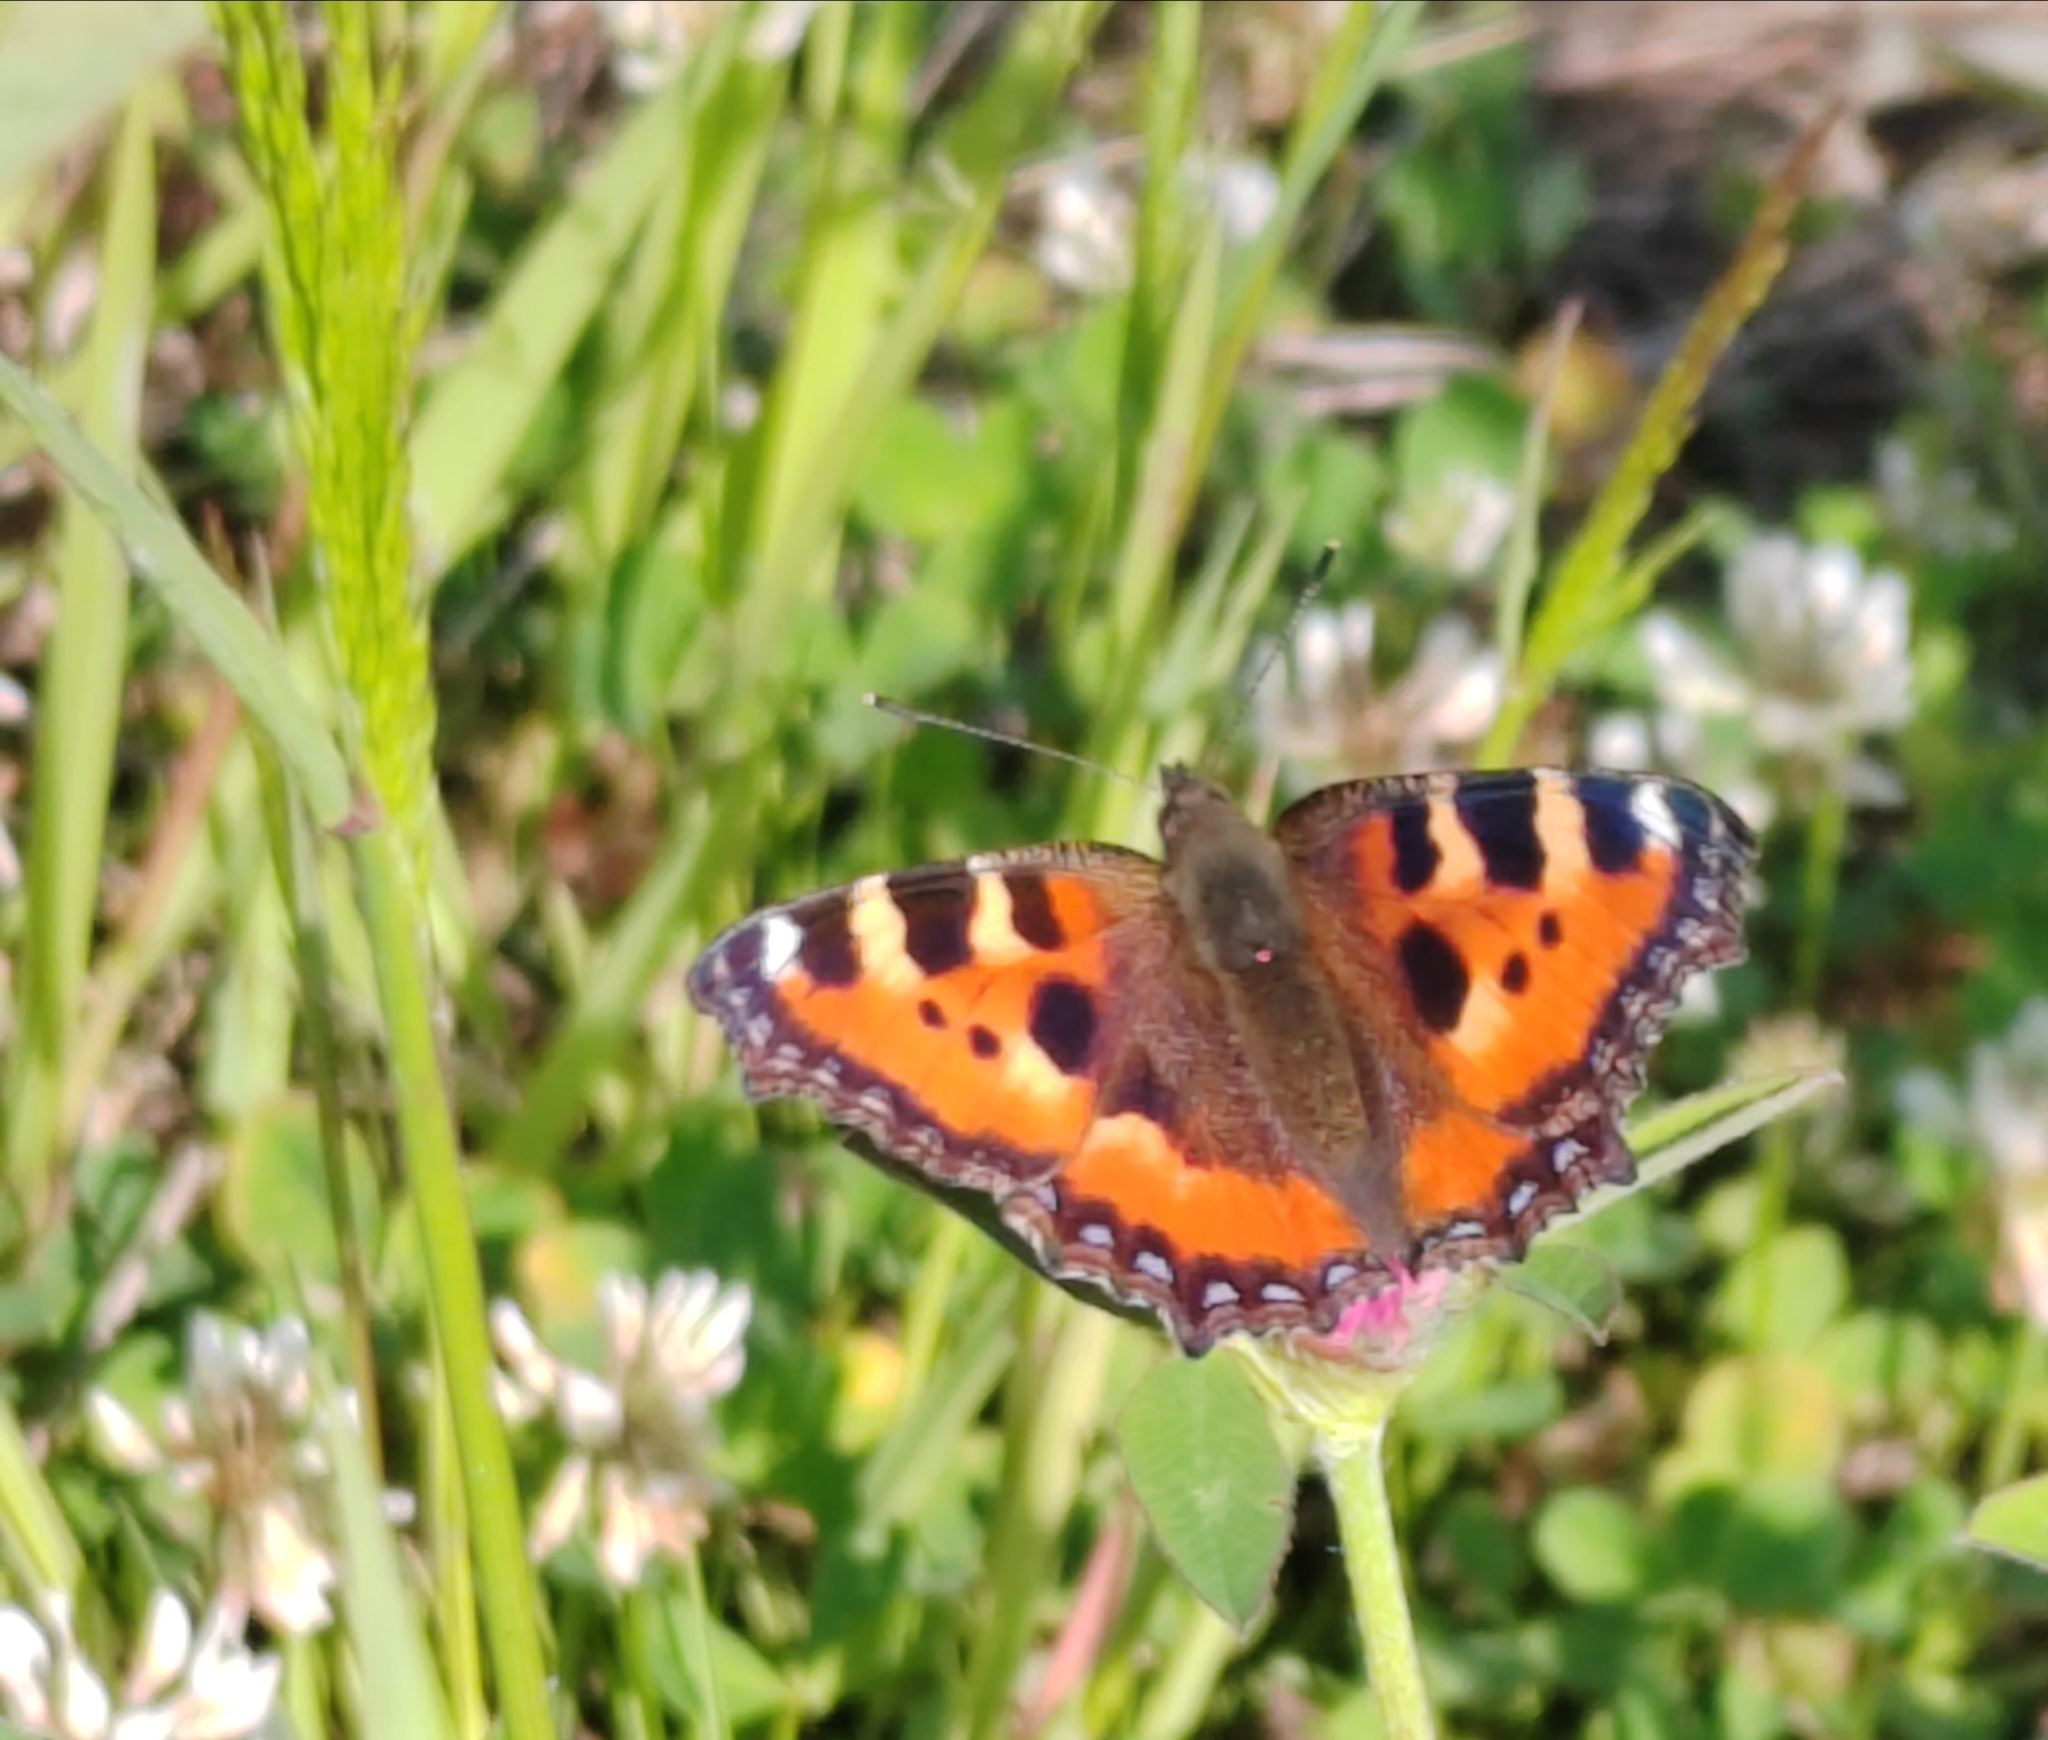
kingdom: Animalia
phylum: Arthropoda
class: Insecta
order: Lepidoptera
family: Nymphalidae
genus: Aglais
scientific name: Aglais urticae
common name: Small tortoiseshell
